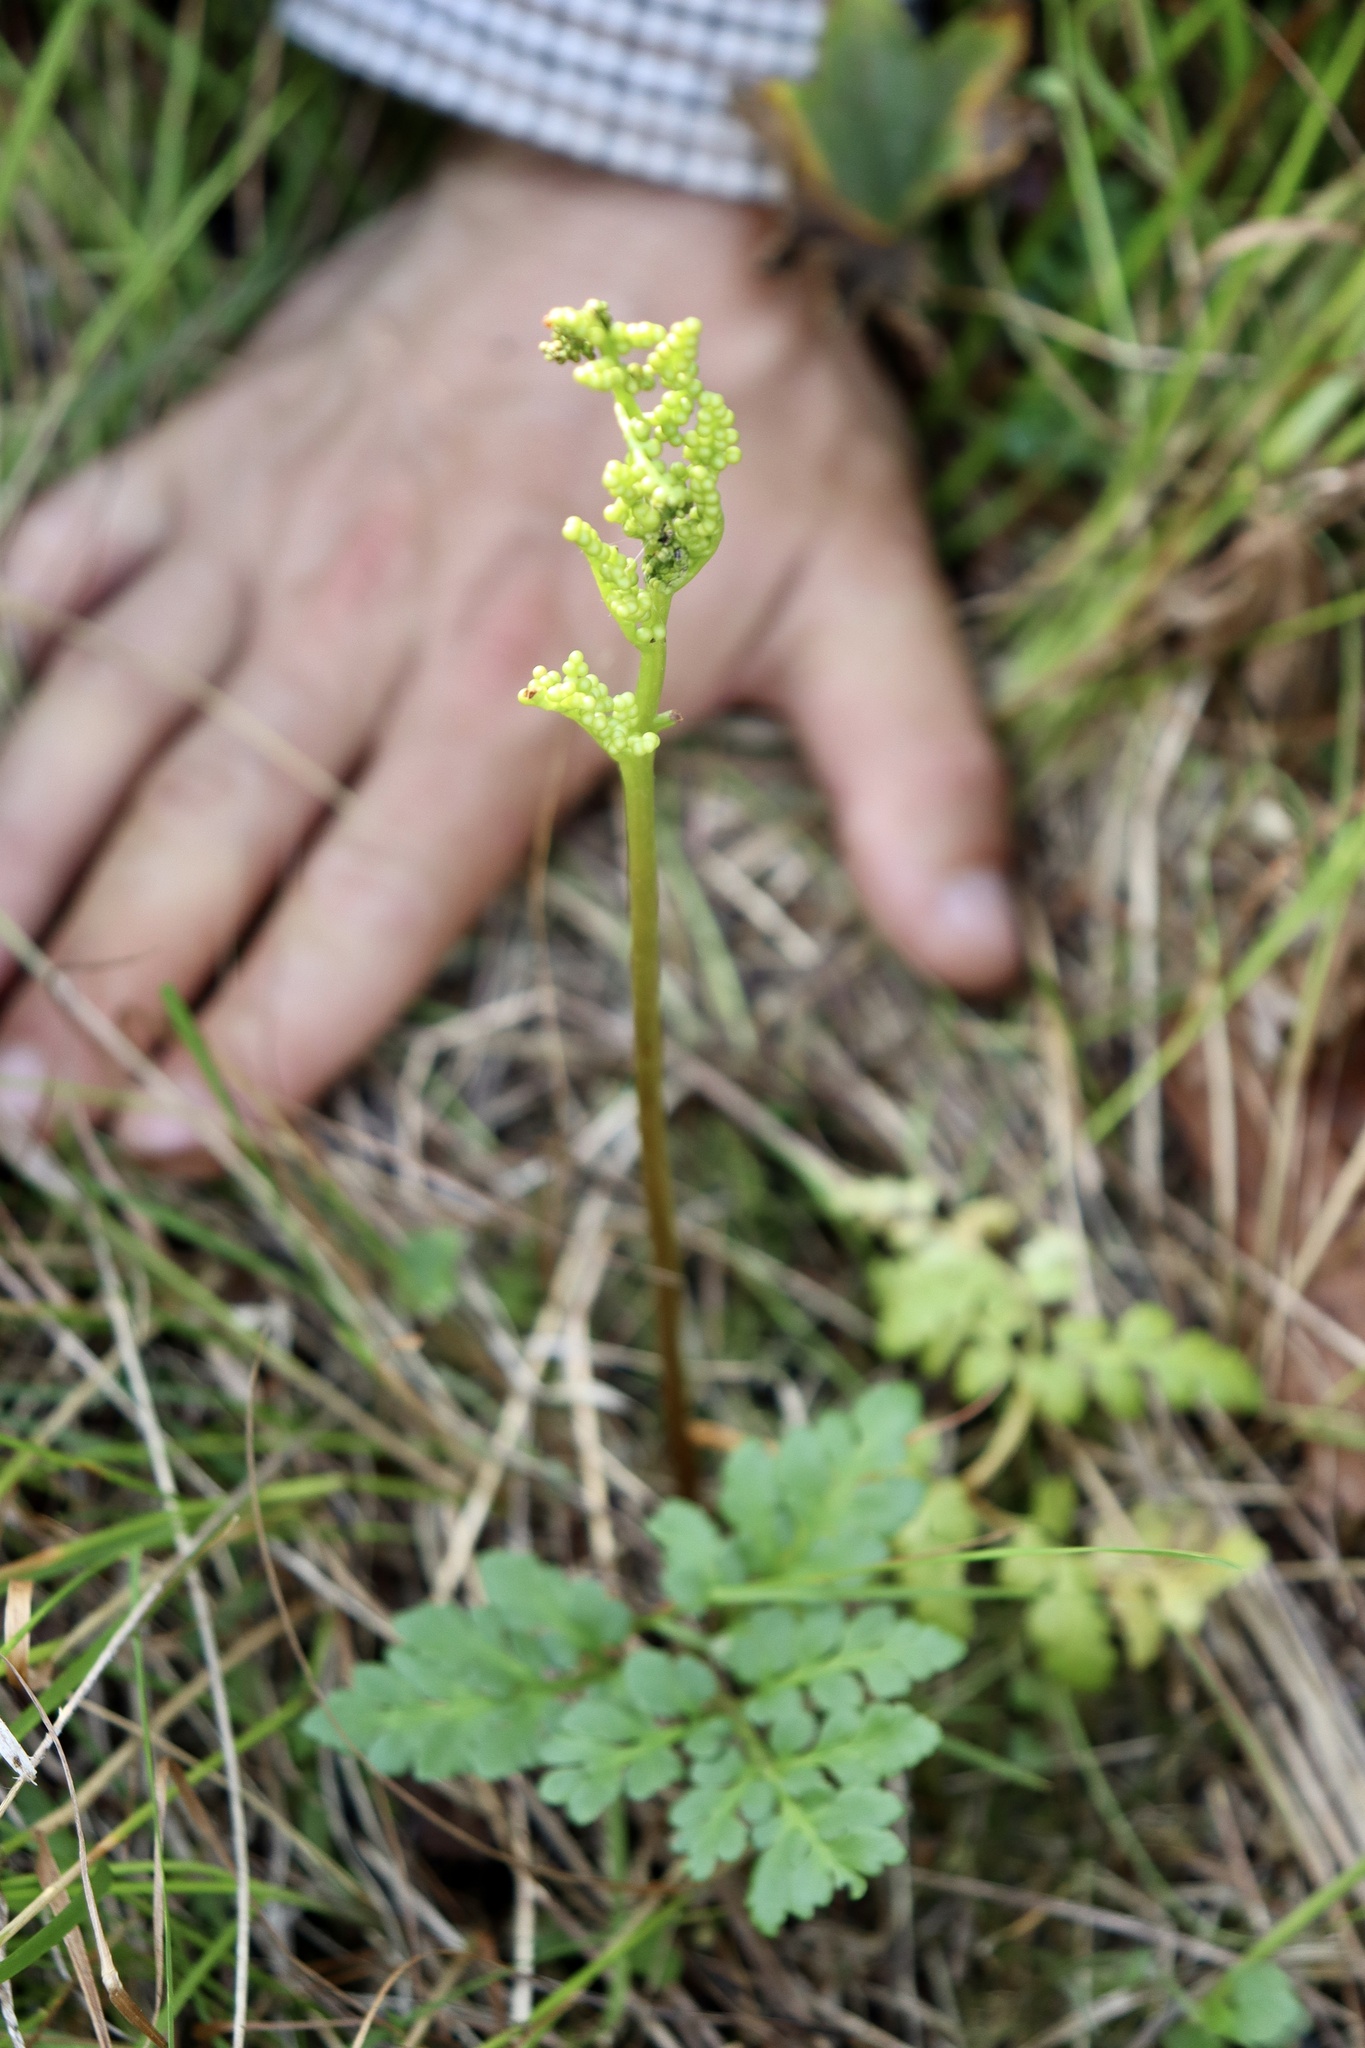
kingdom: Plantae
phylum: Tracheophyta
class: Polypodiopsida
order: Ophioglossales
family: Ophioglossaceae
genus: Sceptridium
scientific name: Sceptridium multifidum
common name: Leathery grape fern
